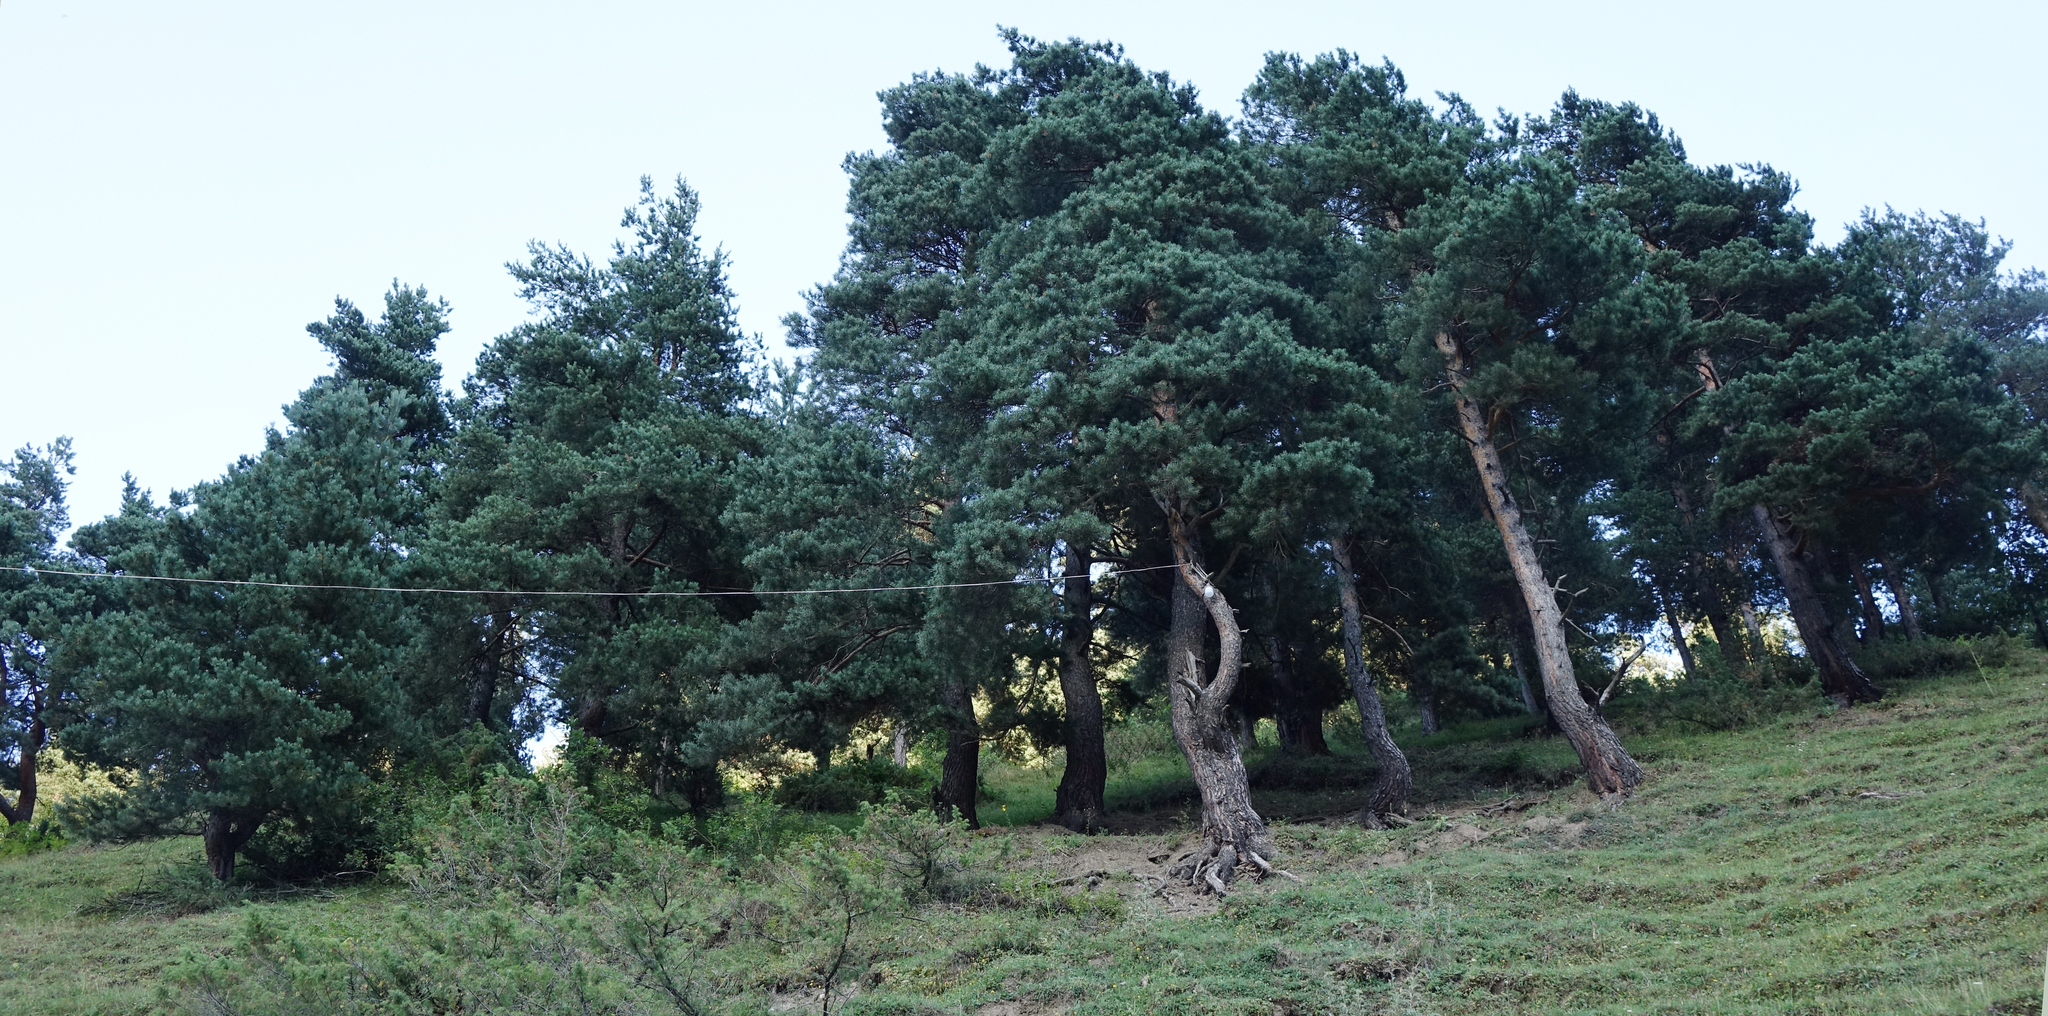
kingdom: Plantae
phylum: Tracheophyta
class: Pinopsida
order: Pinales
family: Pinaceae
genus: Pinus
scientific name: Pinus sylvestris
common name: Scots pine
